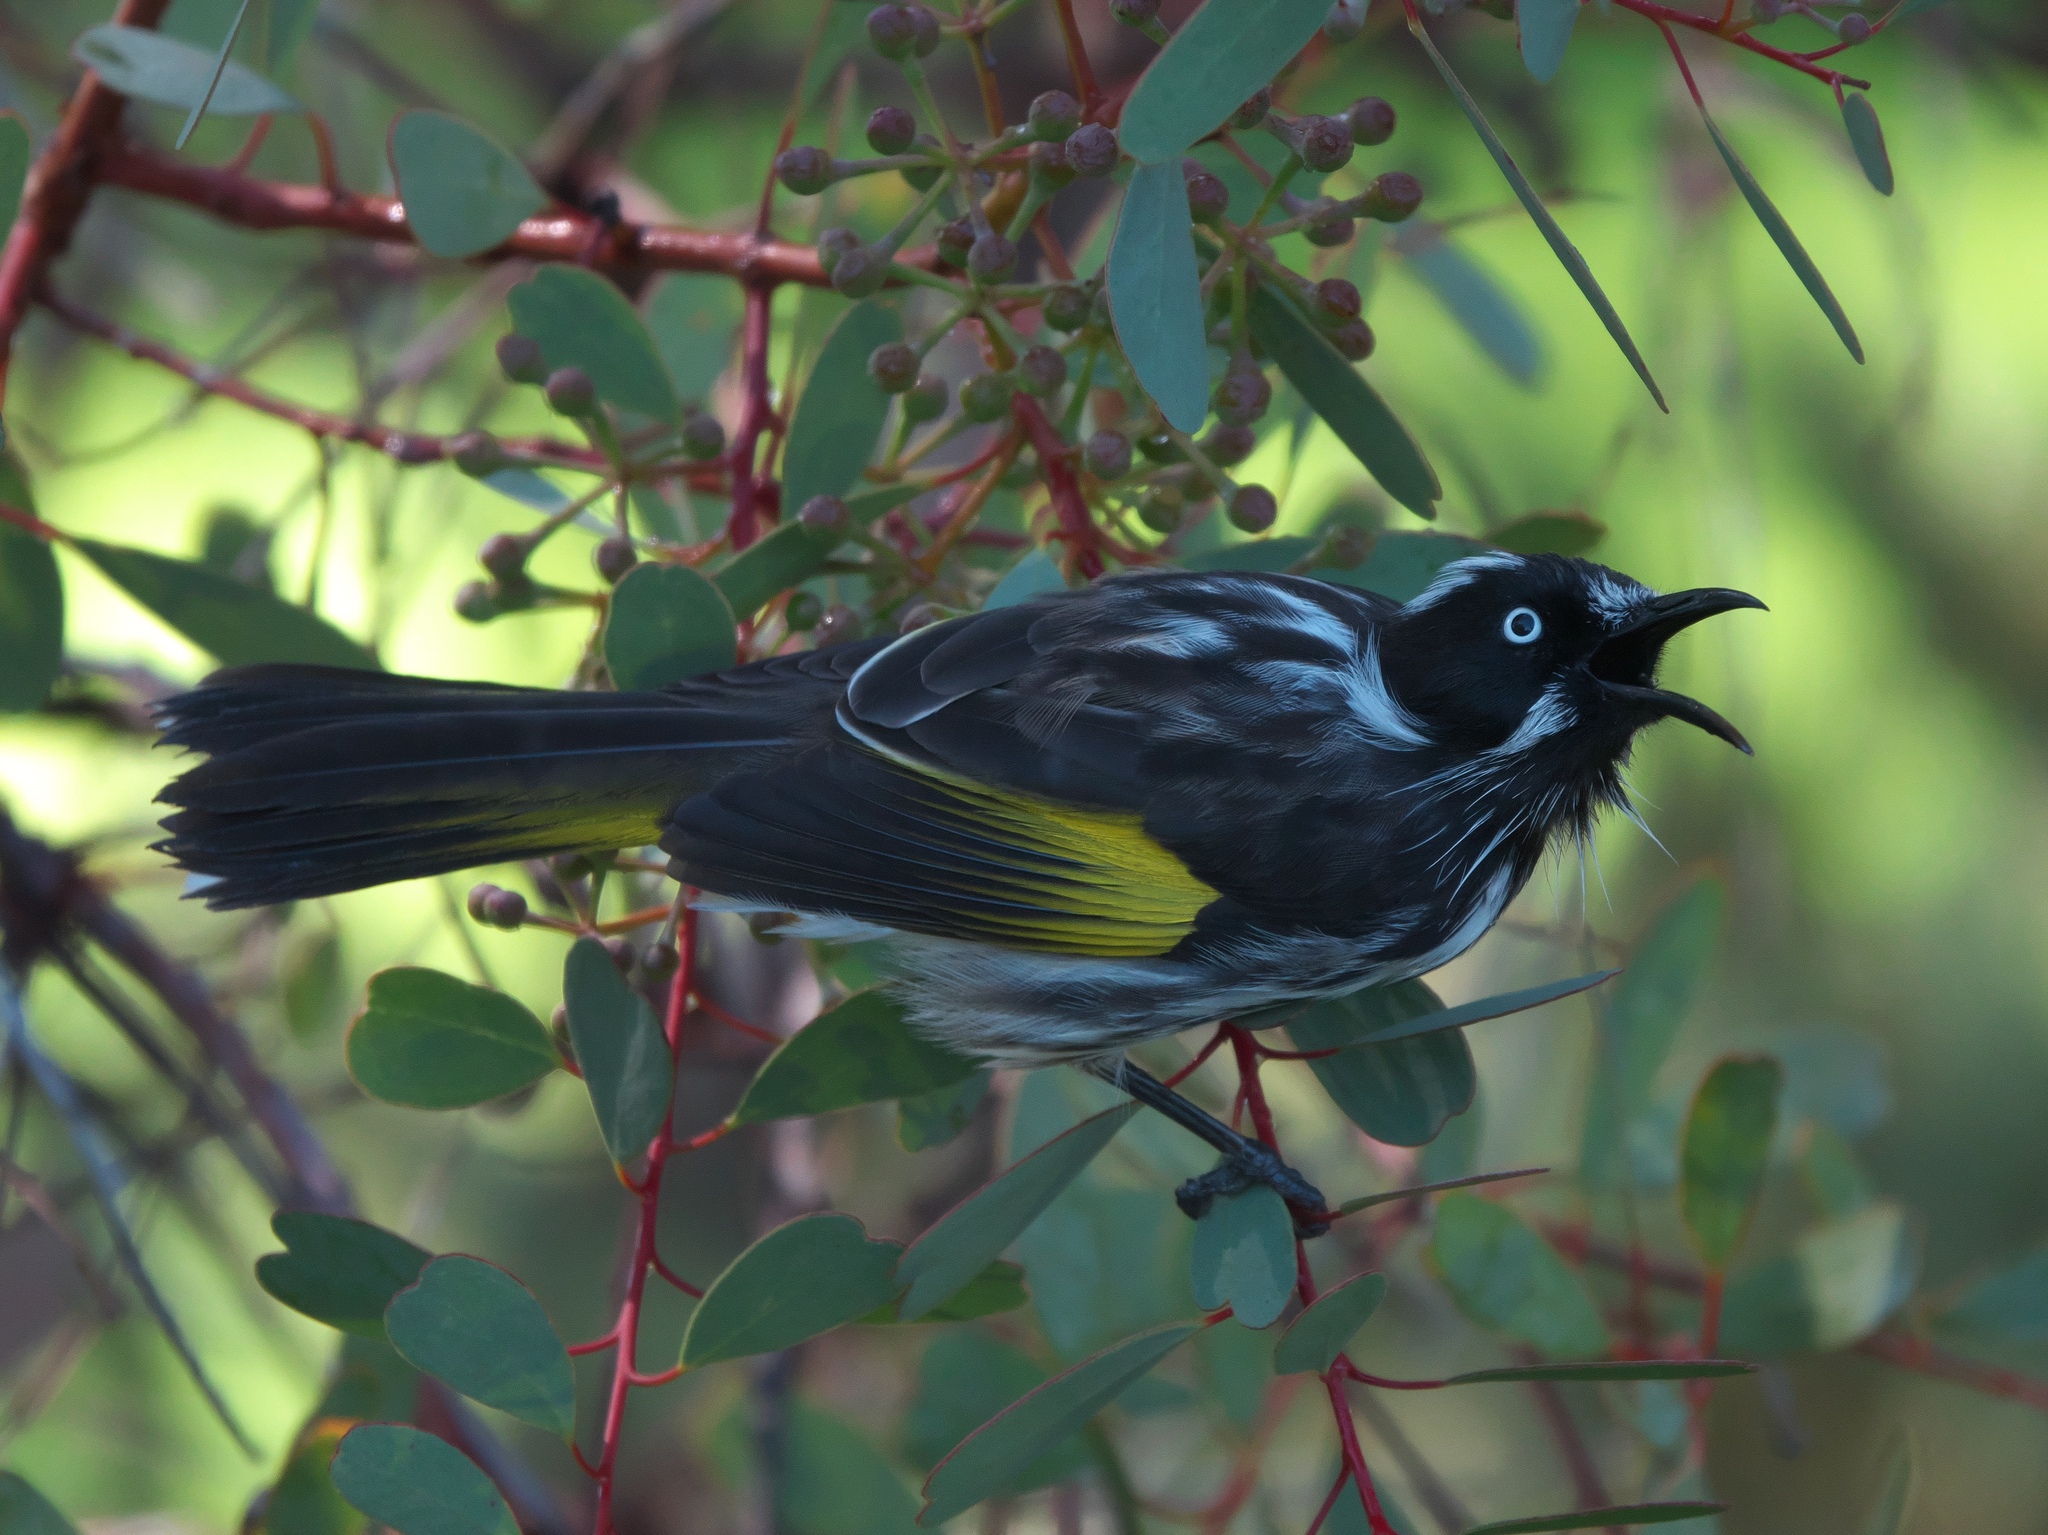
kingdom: Animalia
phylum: Chordata
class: Aves
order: Passeriformes
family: Meliphagidae
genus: Phylidonyris
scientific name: Phylidonyris novaehollandiae
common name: New holland honeyeater
